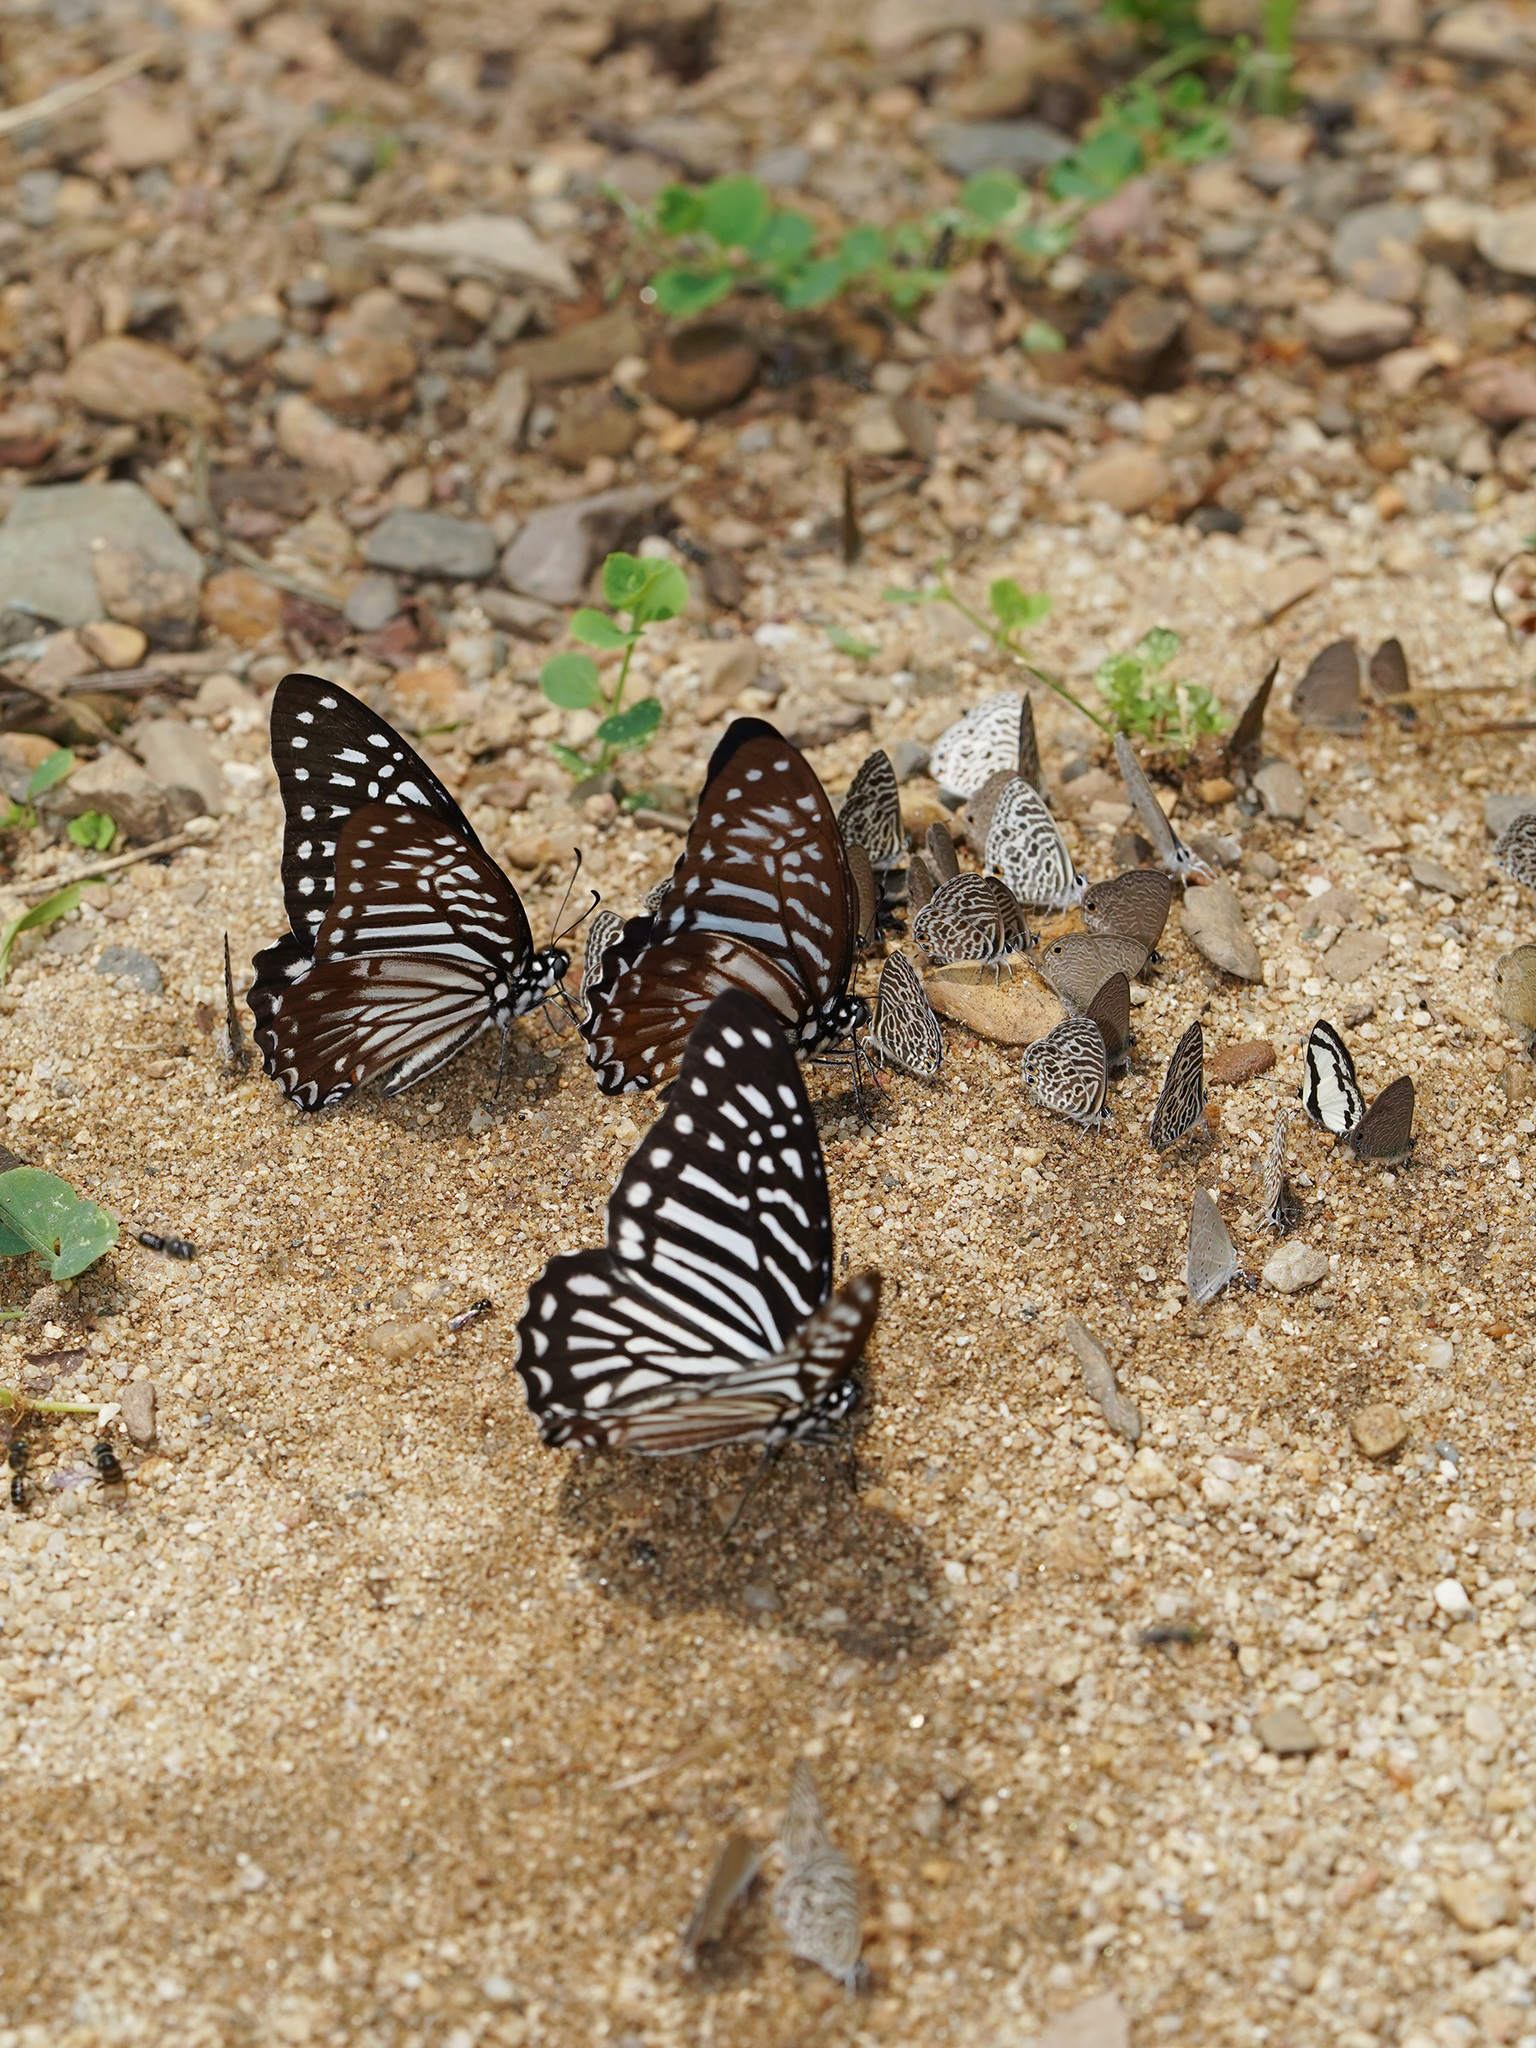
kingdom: Animalia
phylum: Arthropoda
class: Insecta
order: Lepidoptera
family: Papilionidae
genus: Graphium
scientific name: Graphium macareus
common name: Lesser zebra
